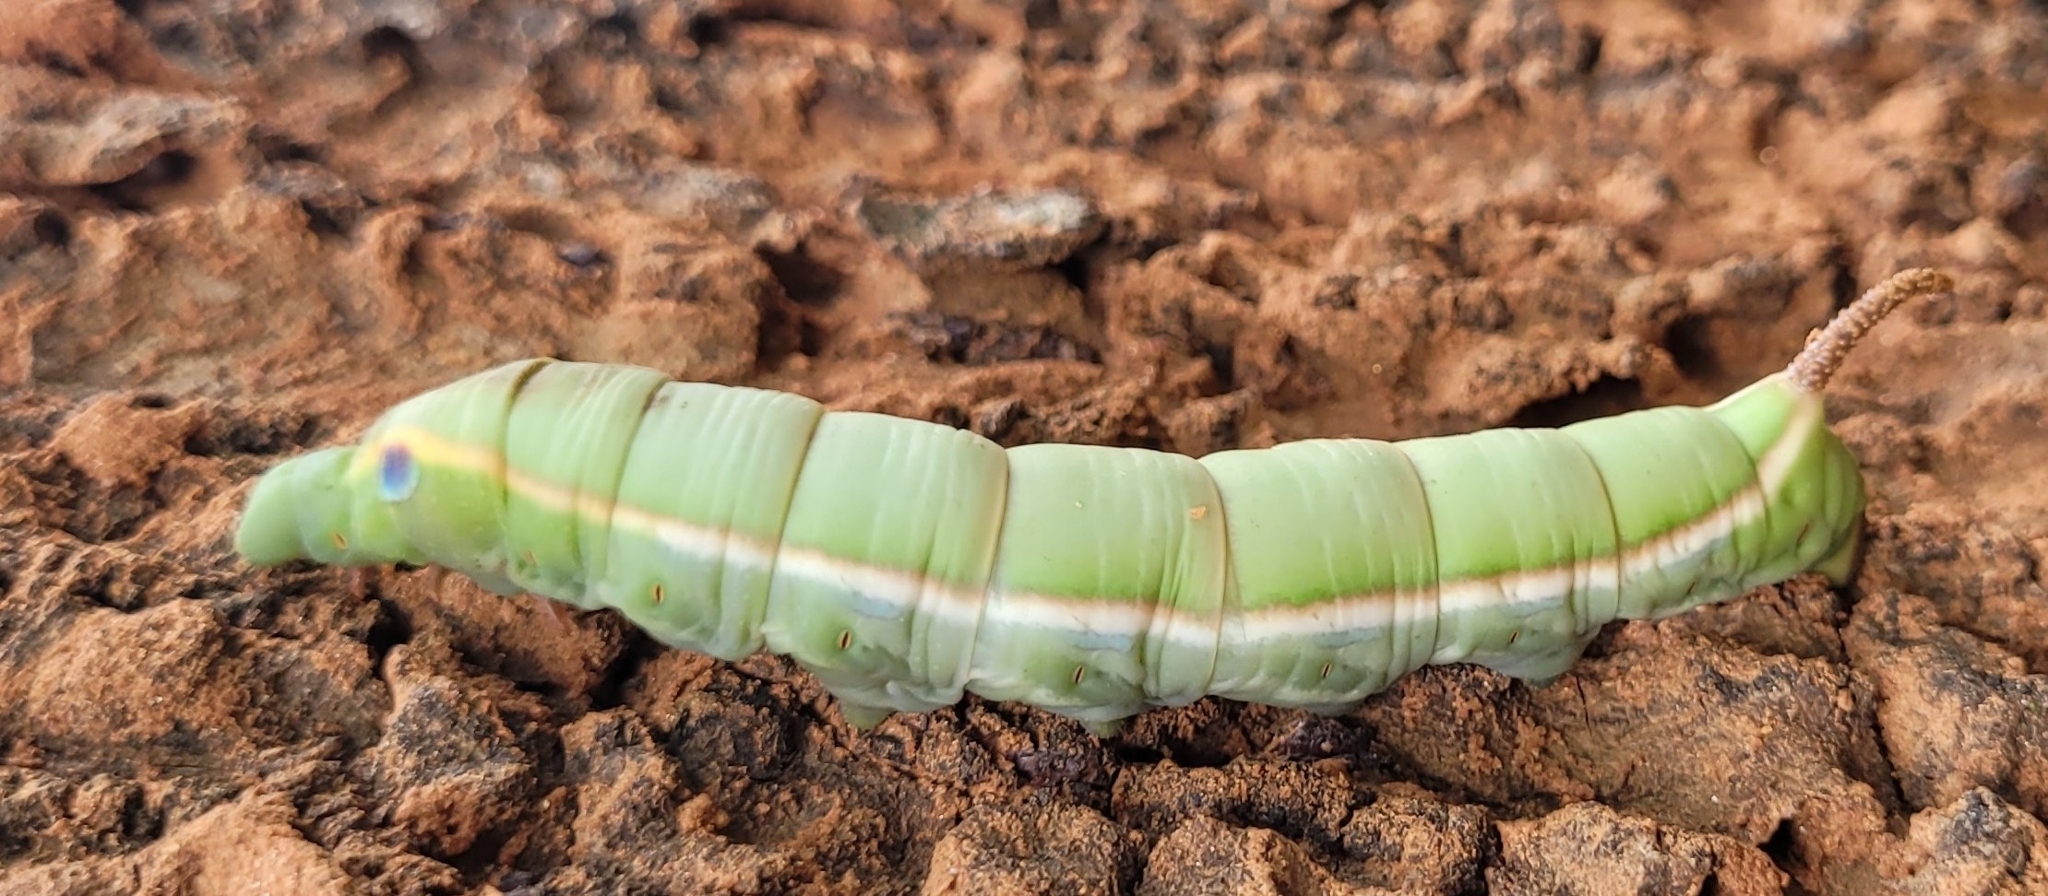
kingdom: Animalia
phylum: Arthropoda
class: Insecta
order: Lepidoptera
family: Sphingidae
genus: Daphnis
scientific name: Daphnis hypothous
